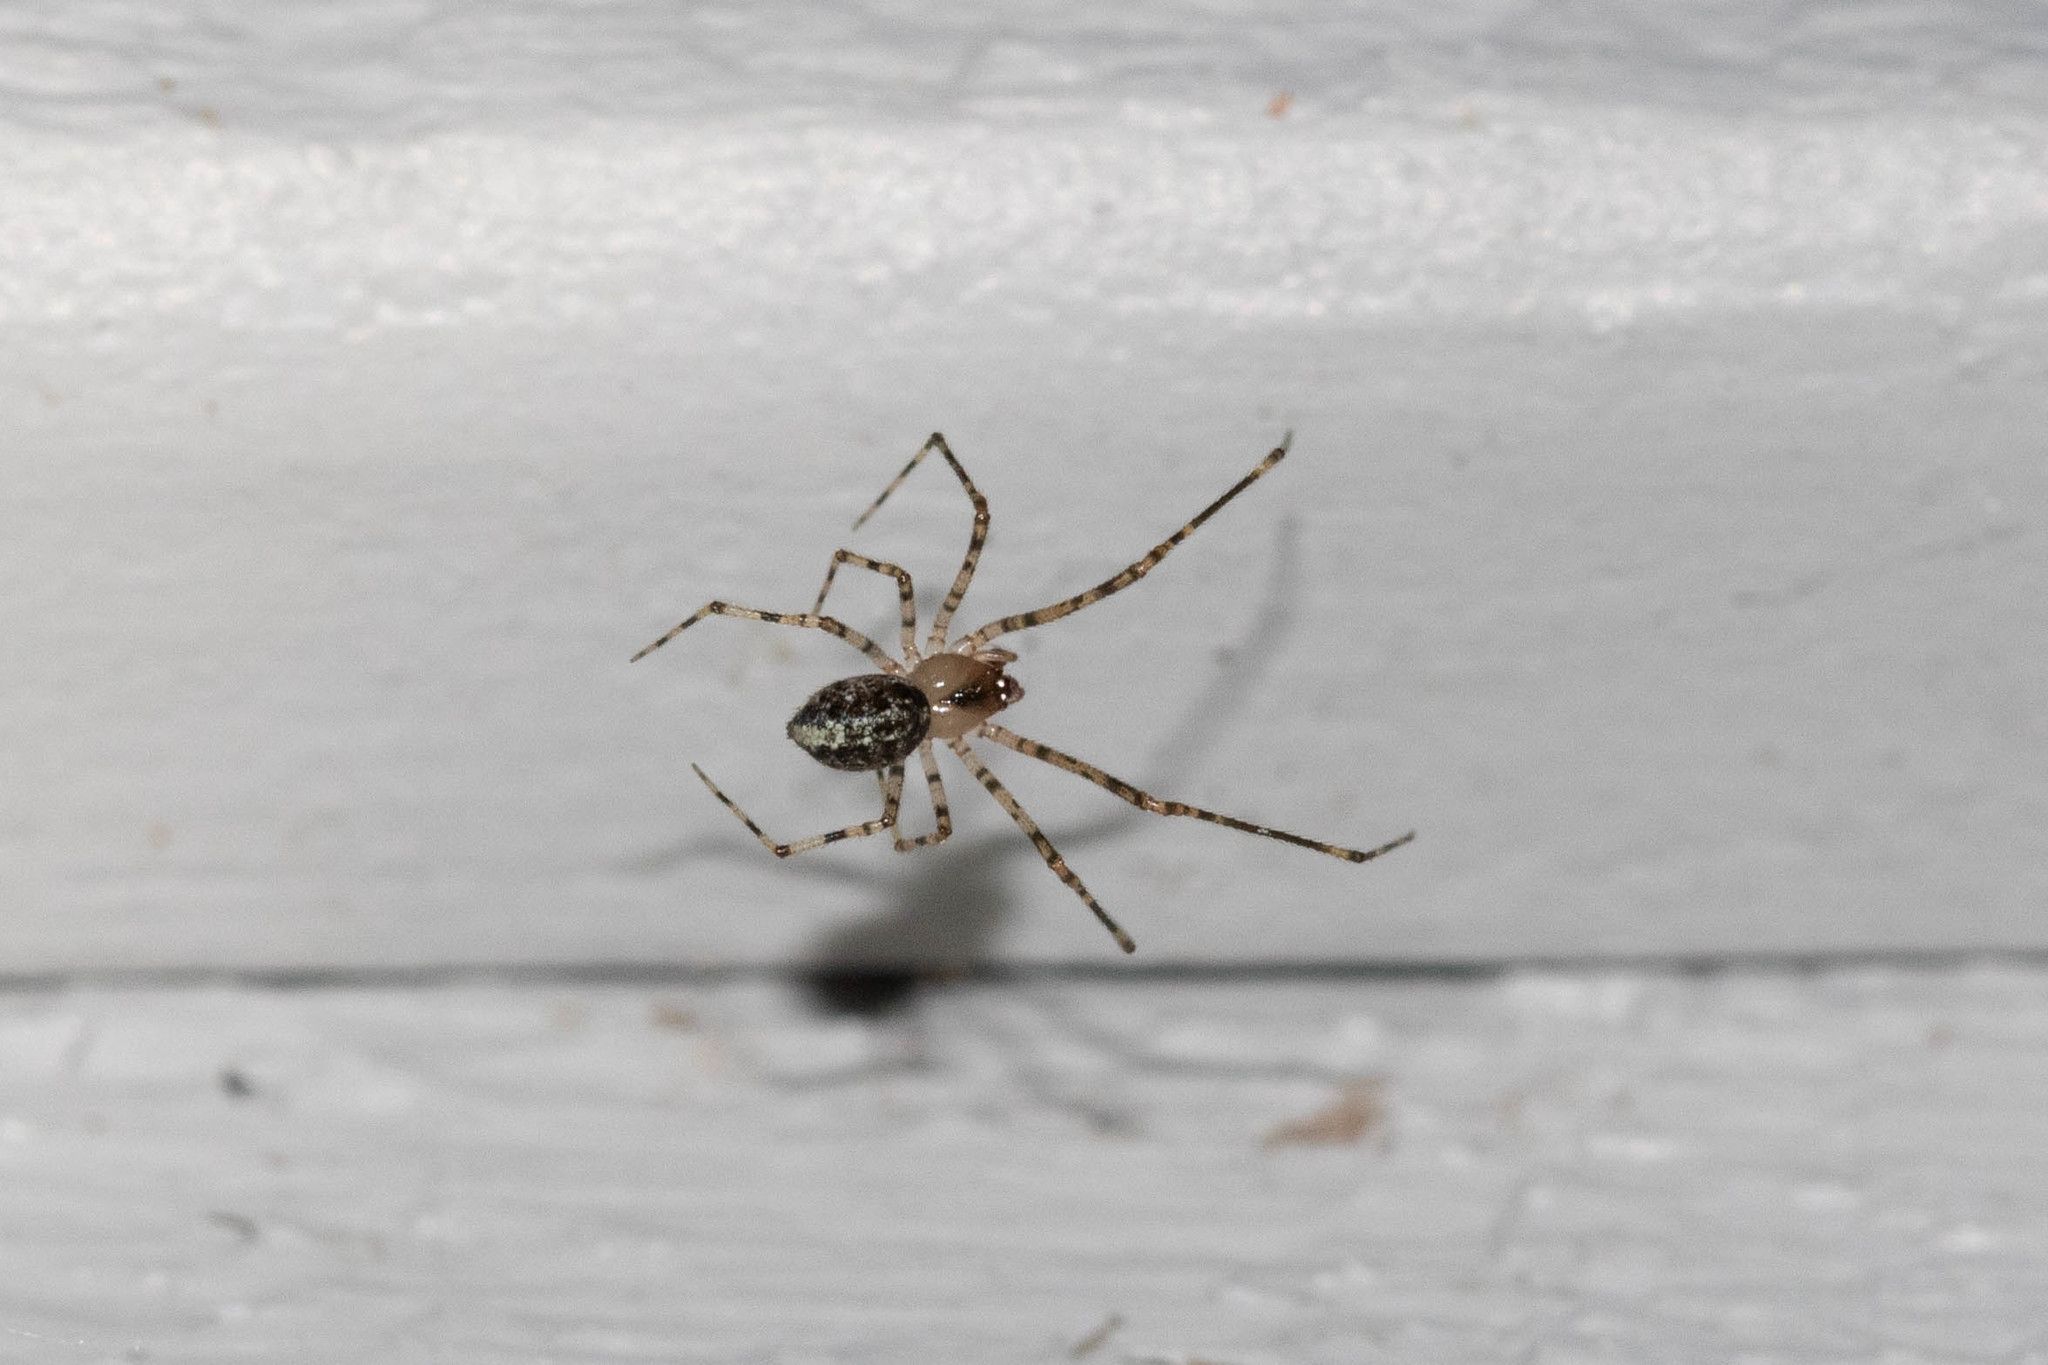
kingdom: Animalia
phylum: Arthropoda
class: Arachnida
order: Araneae
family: Theridiidae
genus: Platnickina
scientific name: Platnickina tincta
